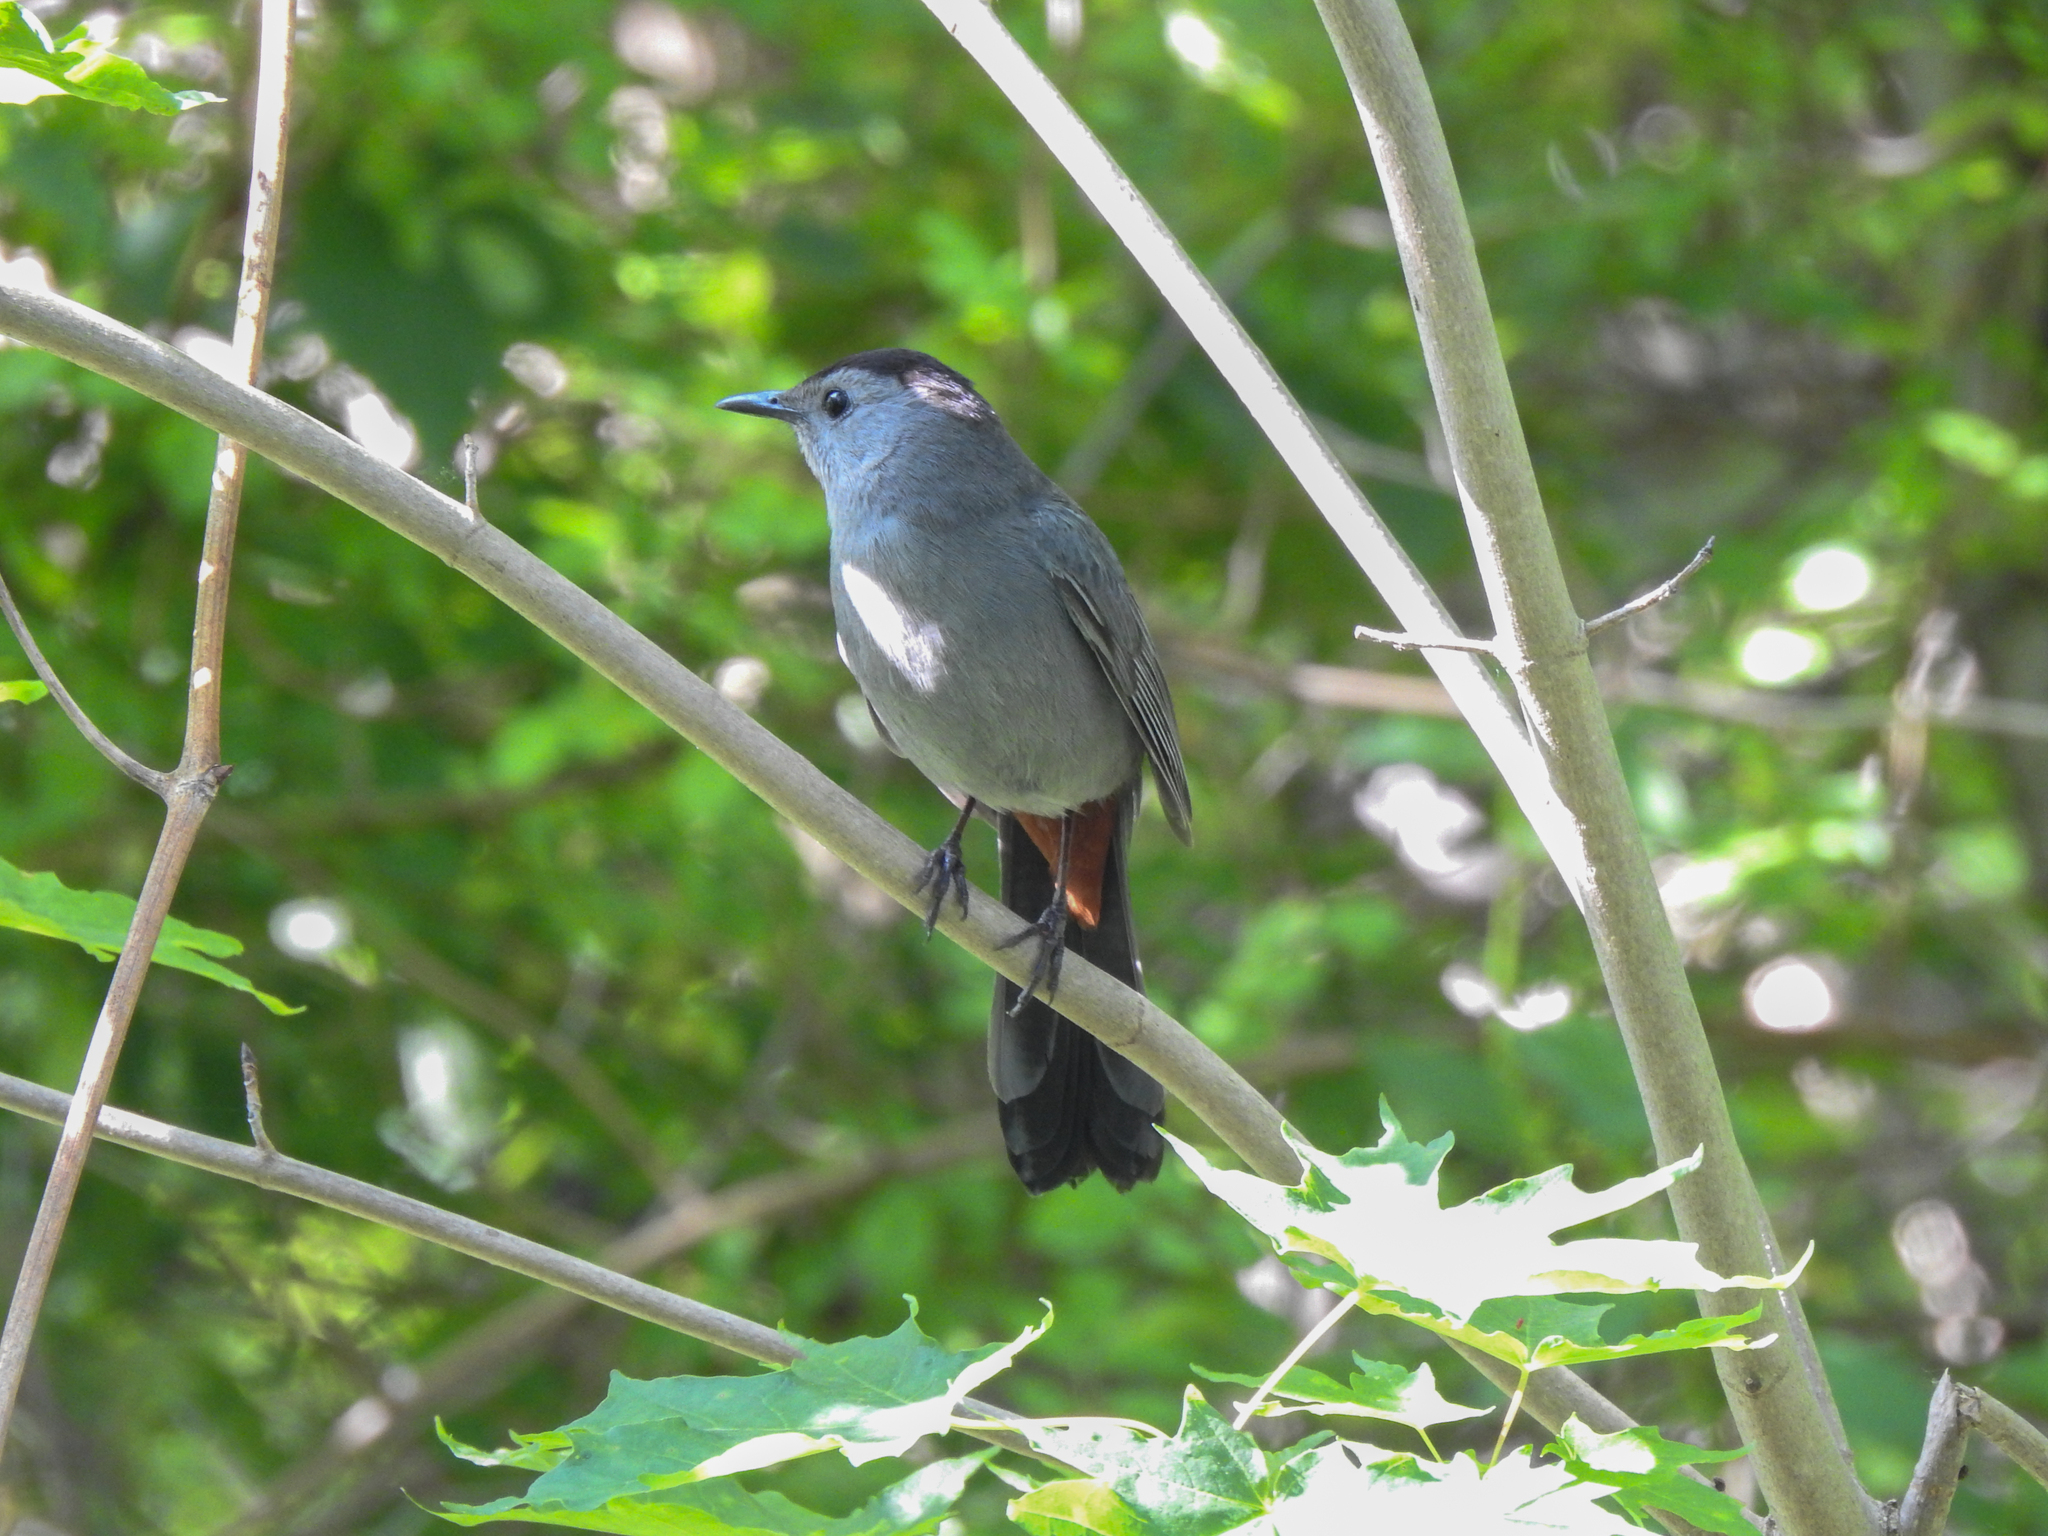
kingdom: Animalia
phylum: Chordata
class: Aves
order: Passeriformes
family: Mimidae
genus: Dumetella
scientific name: Dumetella carolinensis
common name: Gray catbird
